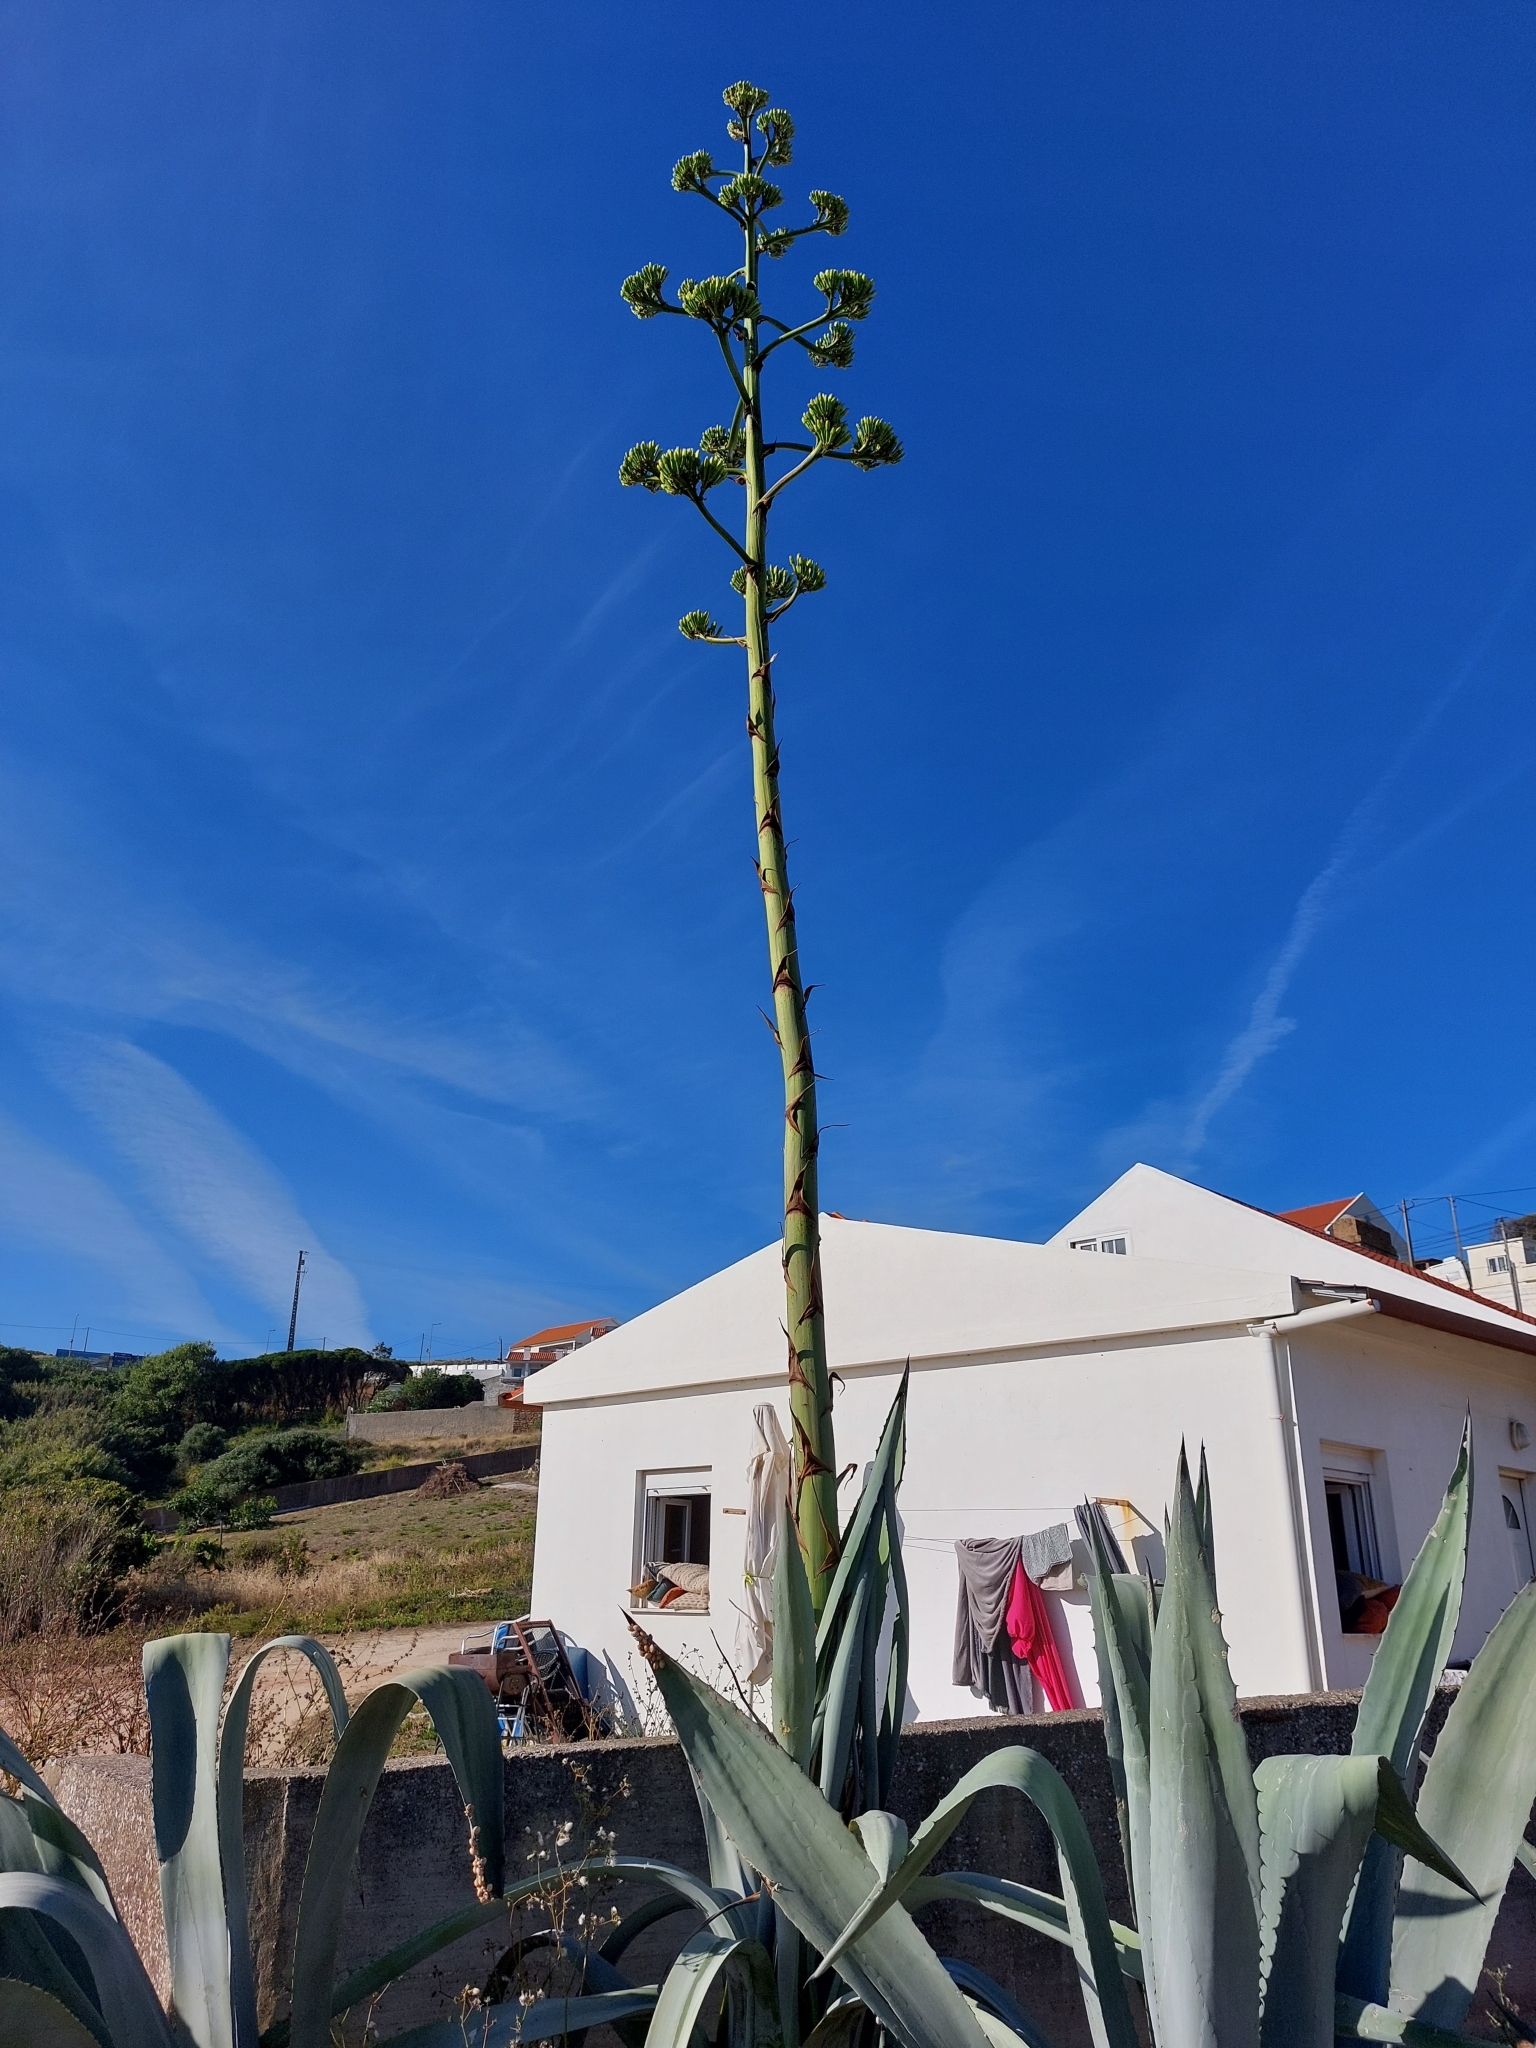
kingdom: Plantae
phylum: Tracheophyta
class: Liliopsida
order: Asparagales
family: Asparagaceae
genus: Agave
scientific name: Agave americana
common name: Centuryplant
